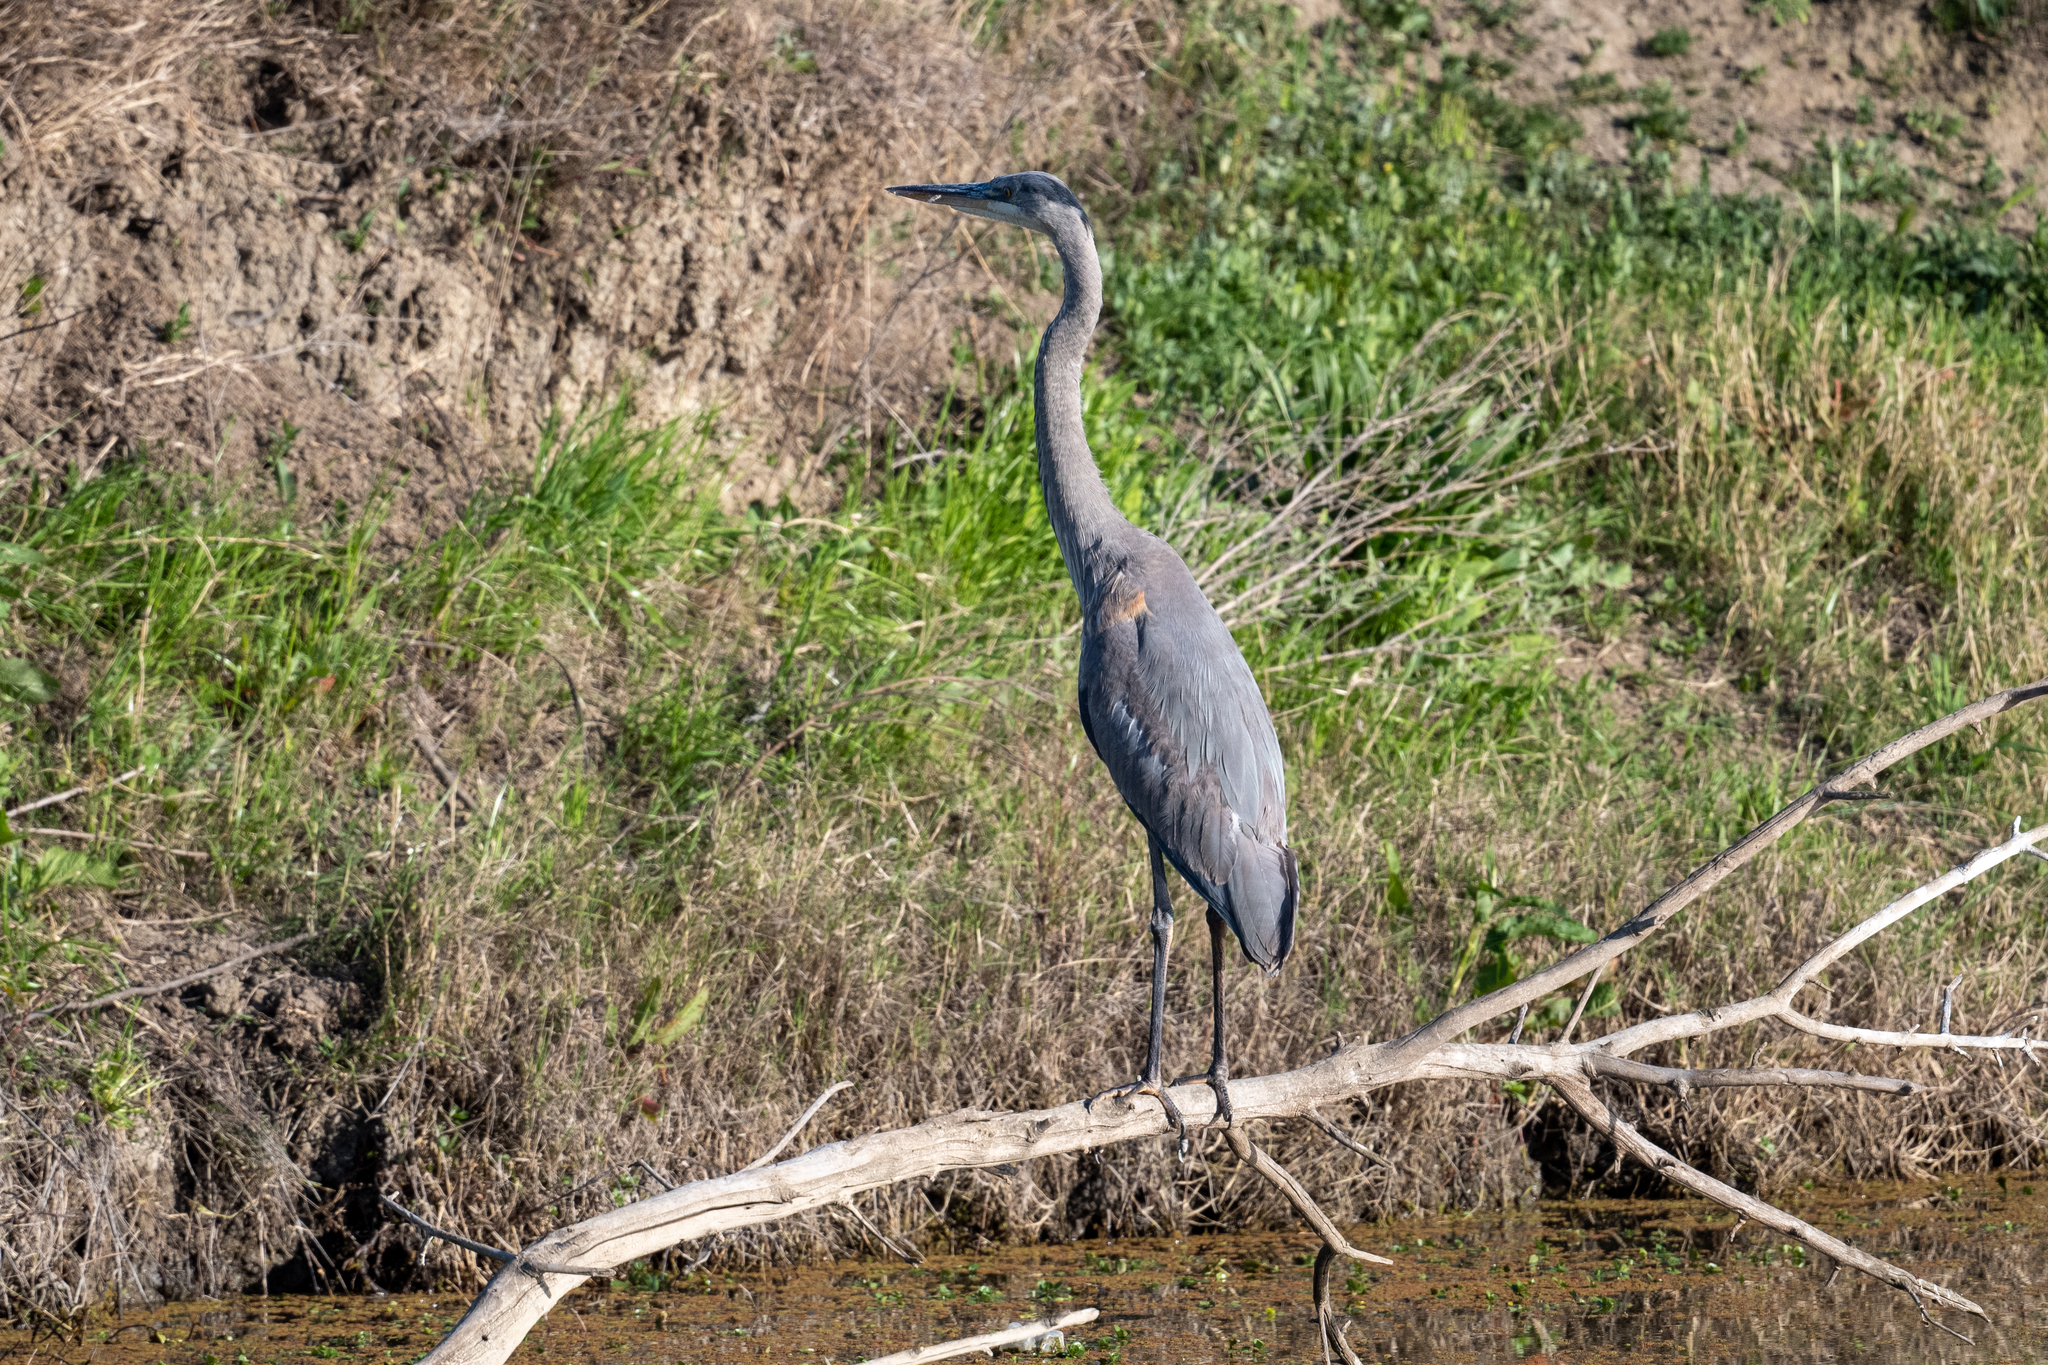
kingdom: Animalia
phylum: Chordata
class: Aves
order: Pelecaniformes
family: Ardeidae
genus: Ardea
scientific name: Ardea herodias
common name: Great blue heron
